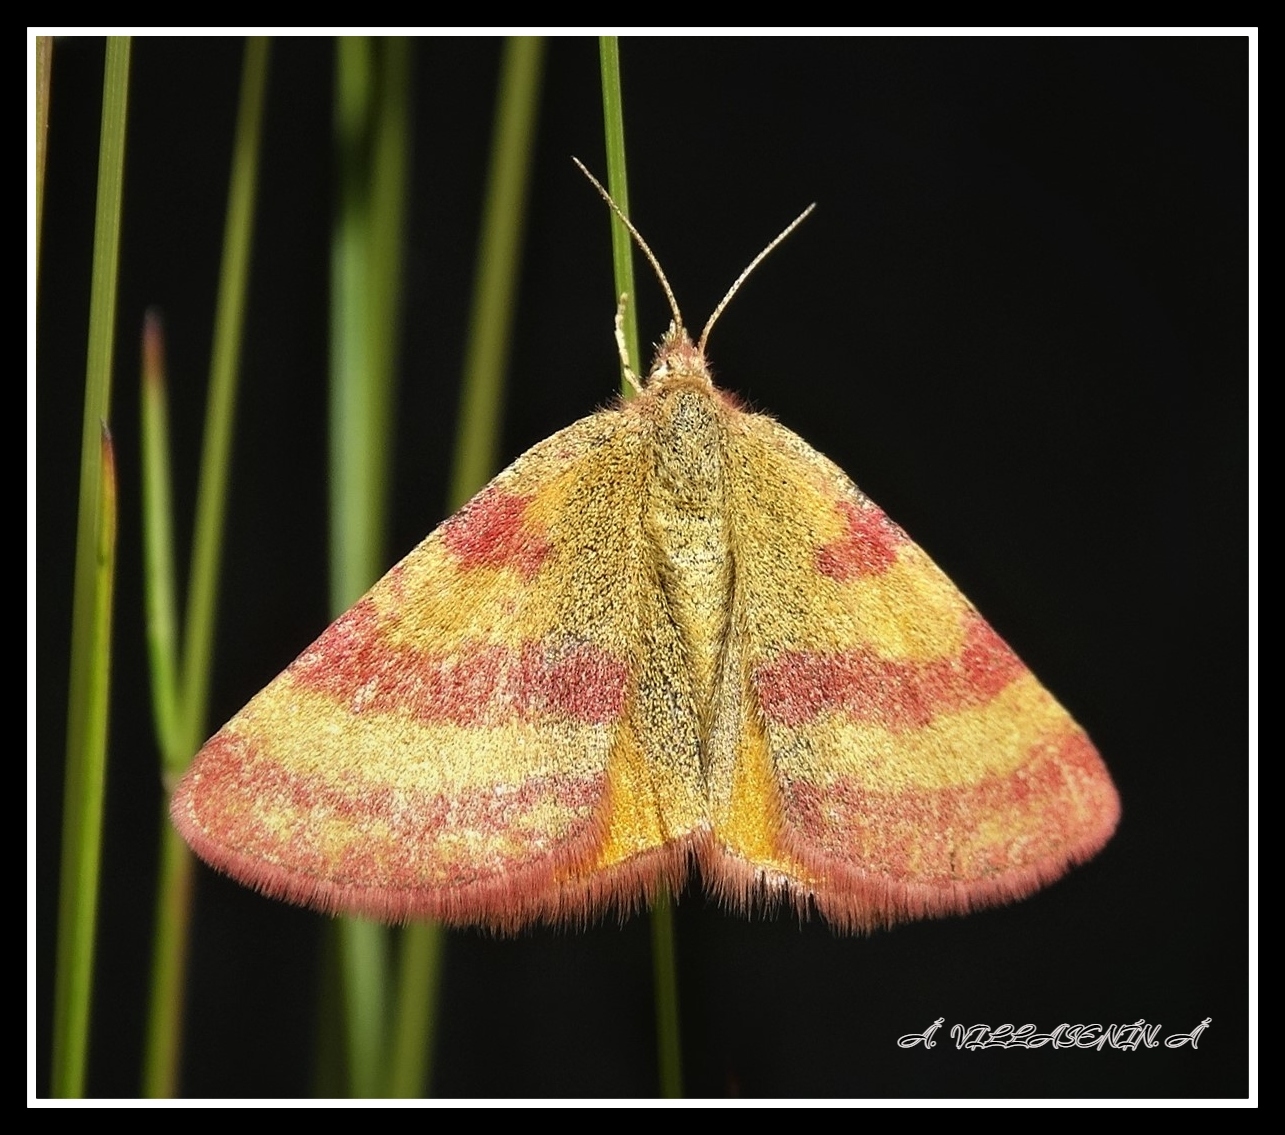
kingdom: Animalia
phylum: Arthropoda
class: Insecta
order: Lepidoptera
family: Geometridae
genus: Lythria
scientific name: Lythria cruentaria
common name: Purple-barred yellow
